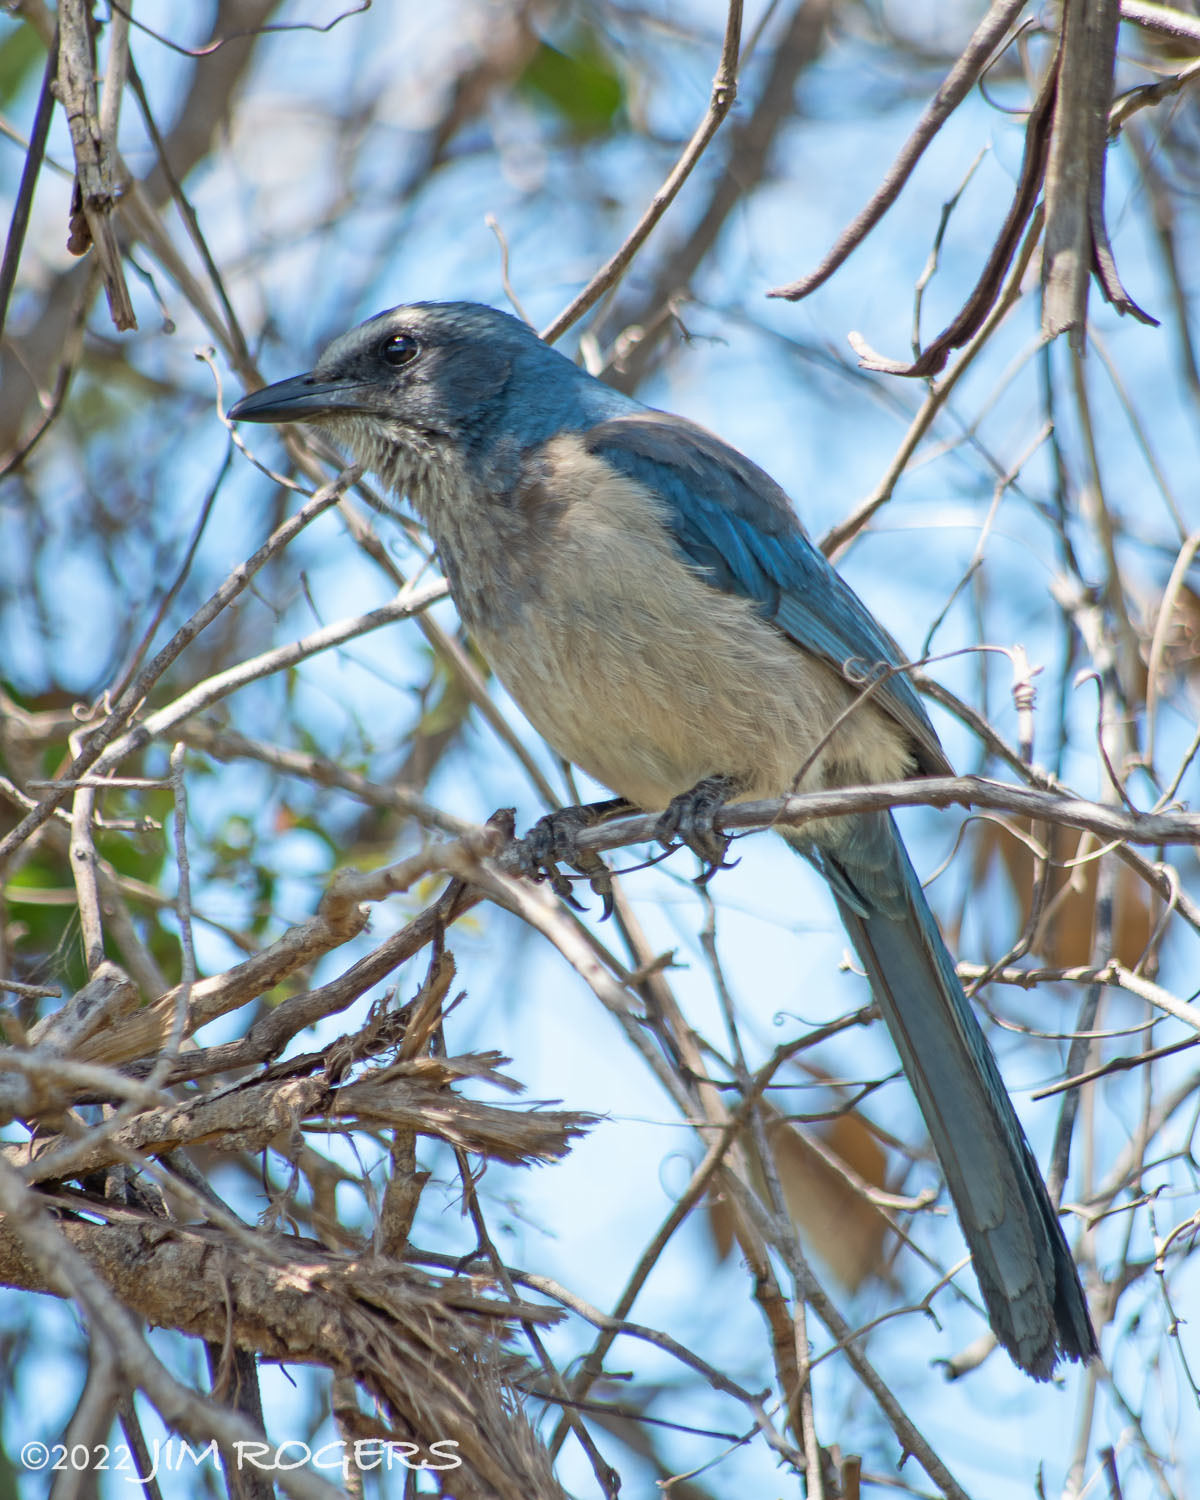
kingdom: Animalia
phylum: Chordata
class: Aves
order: Passeriformes
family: Corvidae
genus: Aphelocoma
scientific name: Aphelocoma coerulescens
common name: Florida scrub jay
